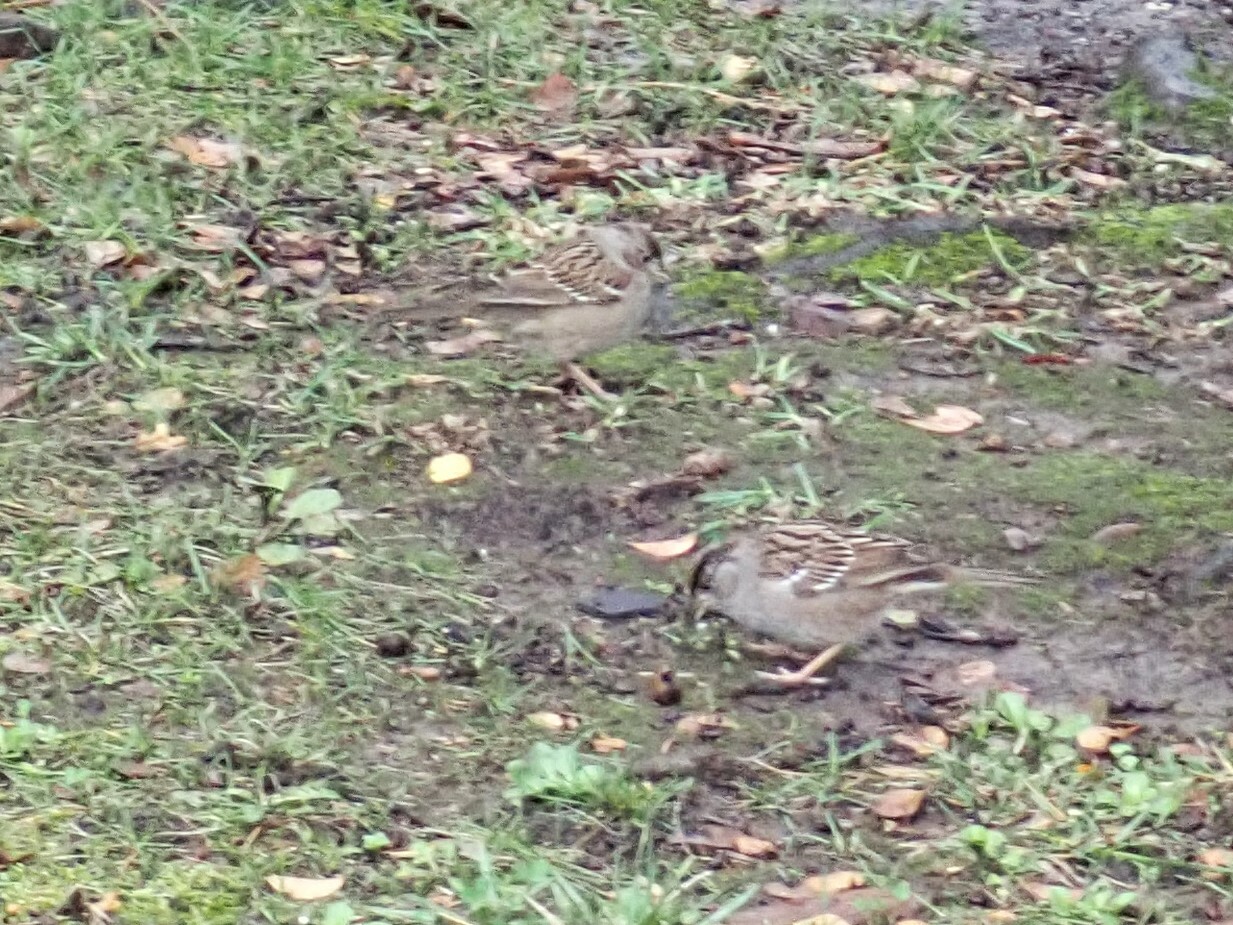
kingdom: Animalia
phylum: Chordata
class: Aves
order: Passeriformes
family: Passerellidae
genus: Zonotrichia
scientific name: Zonotrichia atricapilla
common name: Golden-crowned sparrow
